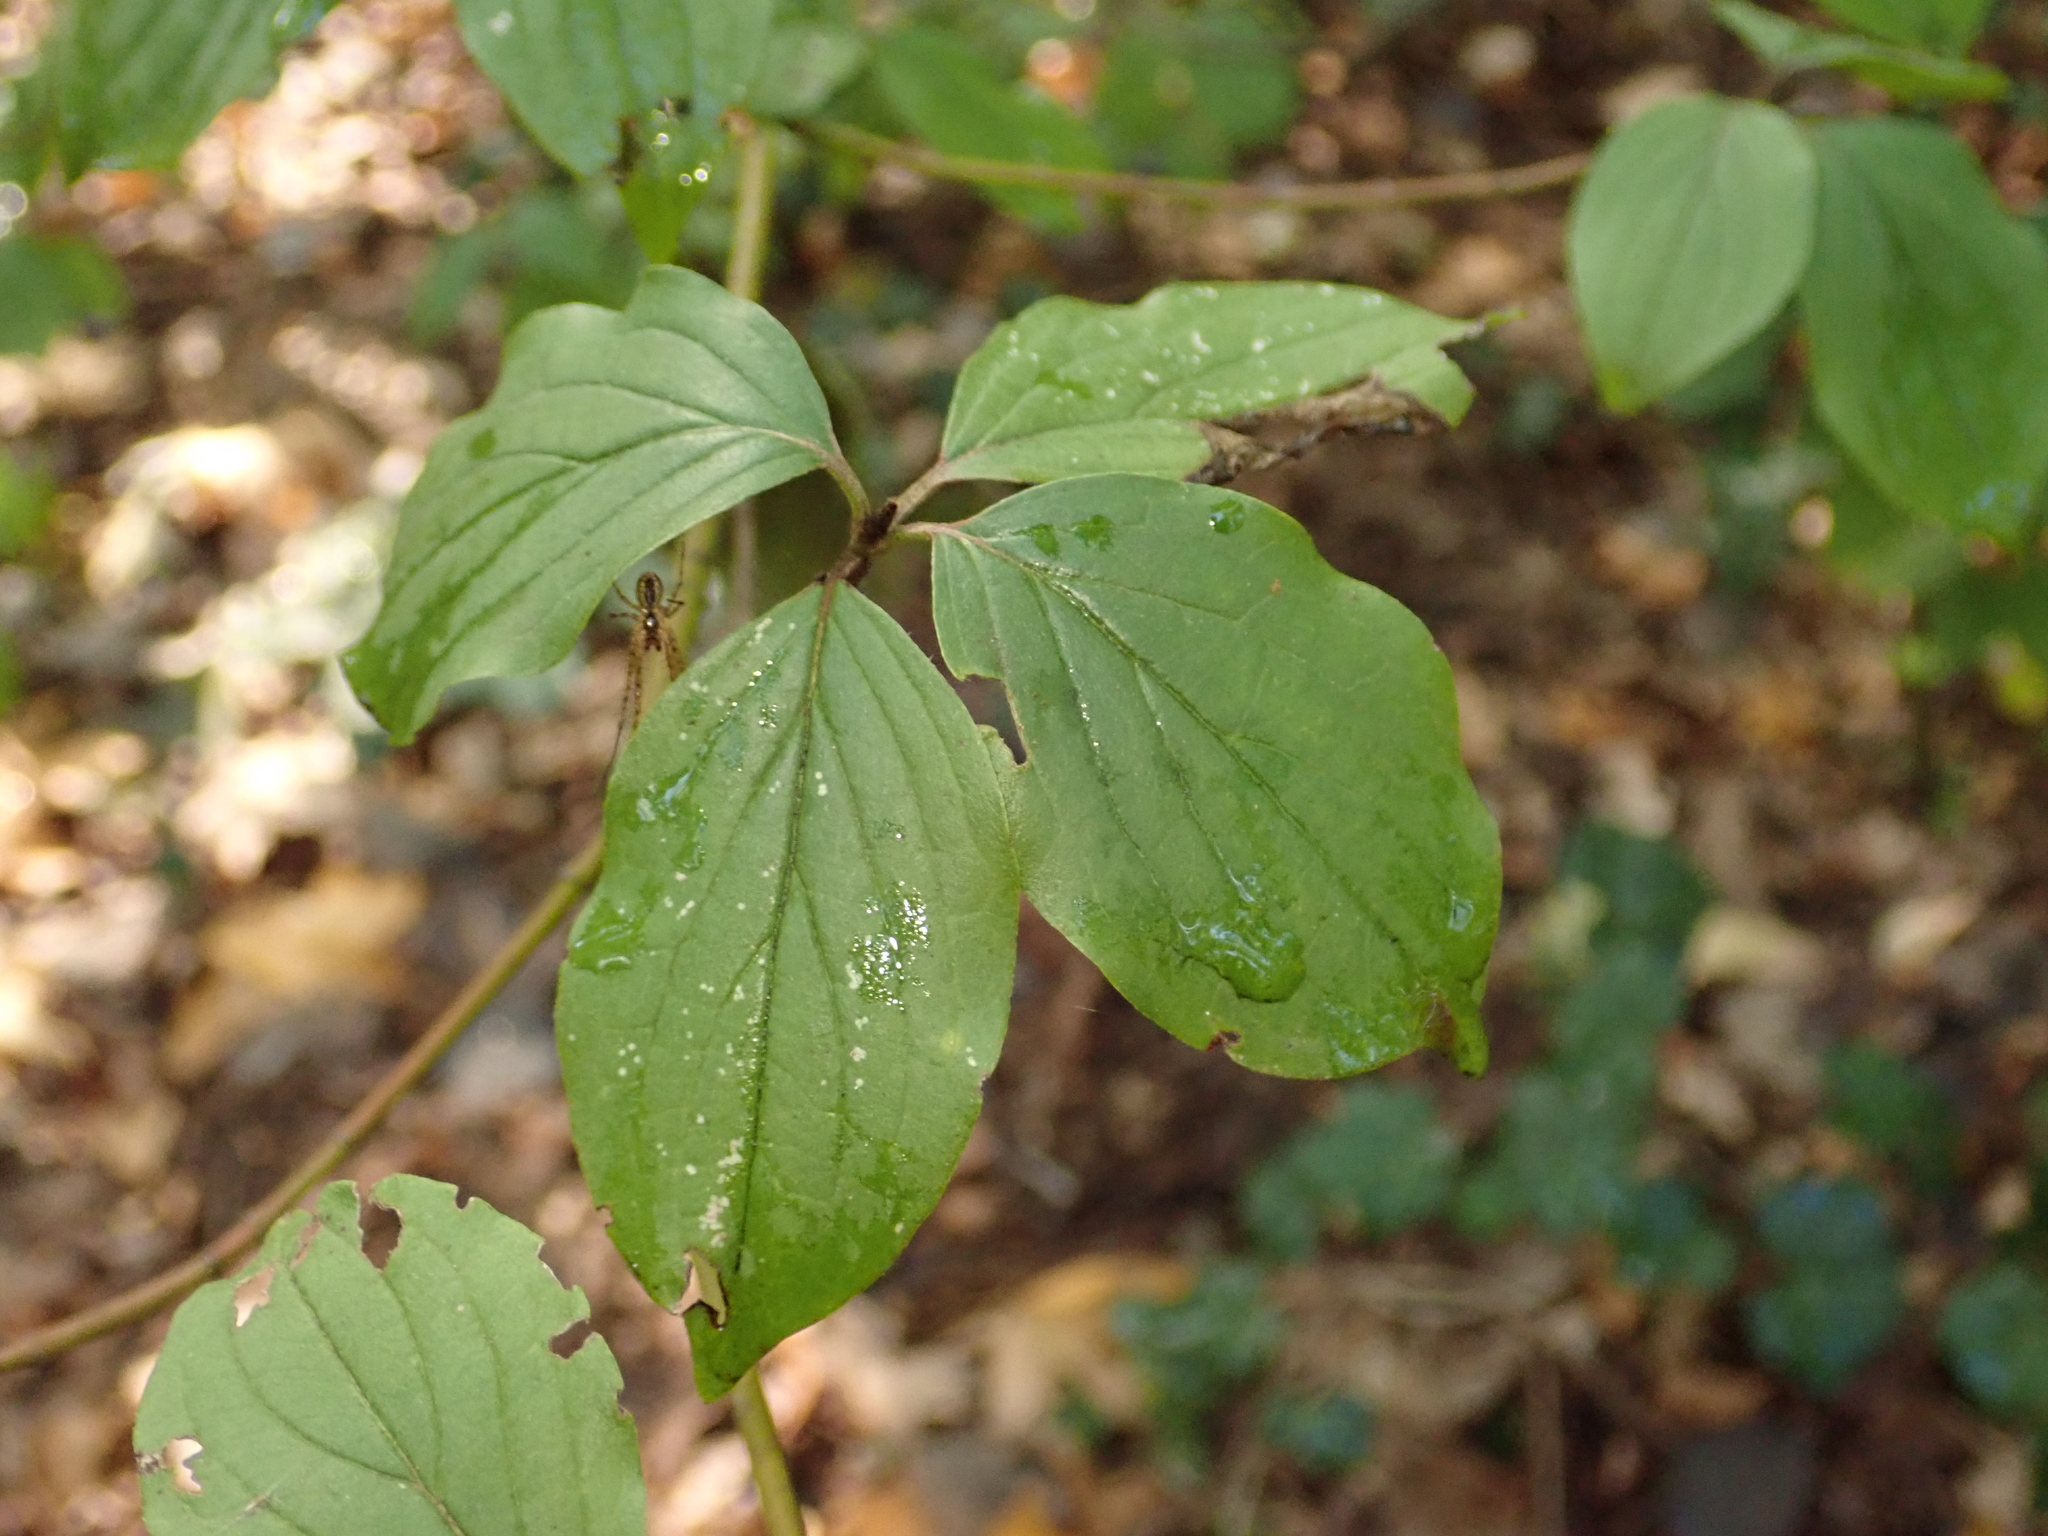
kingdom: Plantae
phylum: Tracheophyta
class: Magnoliopsida
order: Cornales
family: Cornaceae
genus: Cornus
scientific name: Cornus sanguinea
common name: Dogwood
